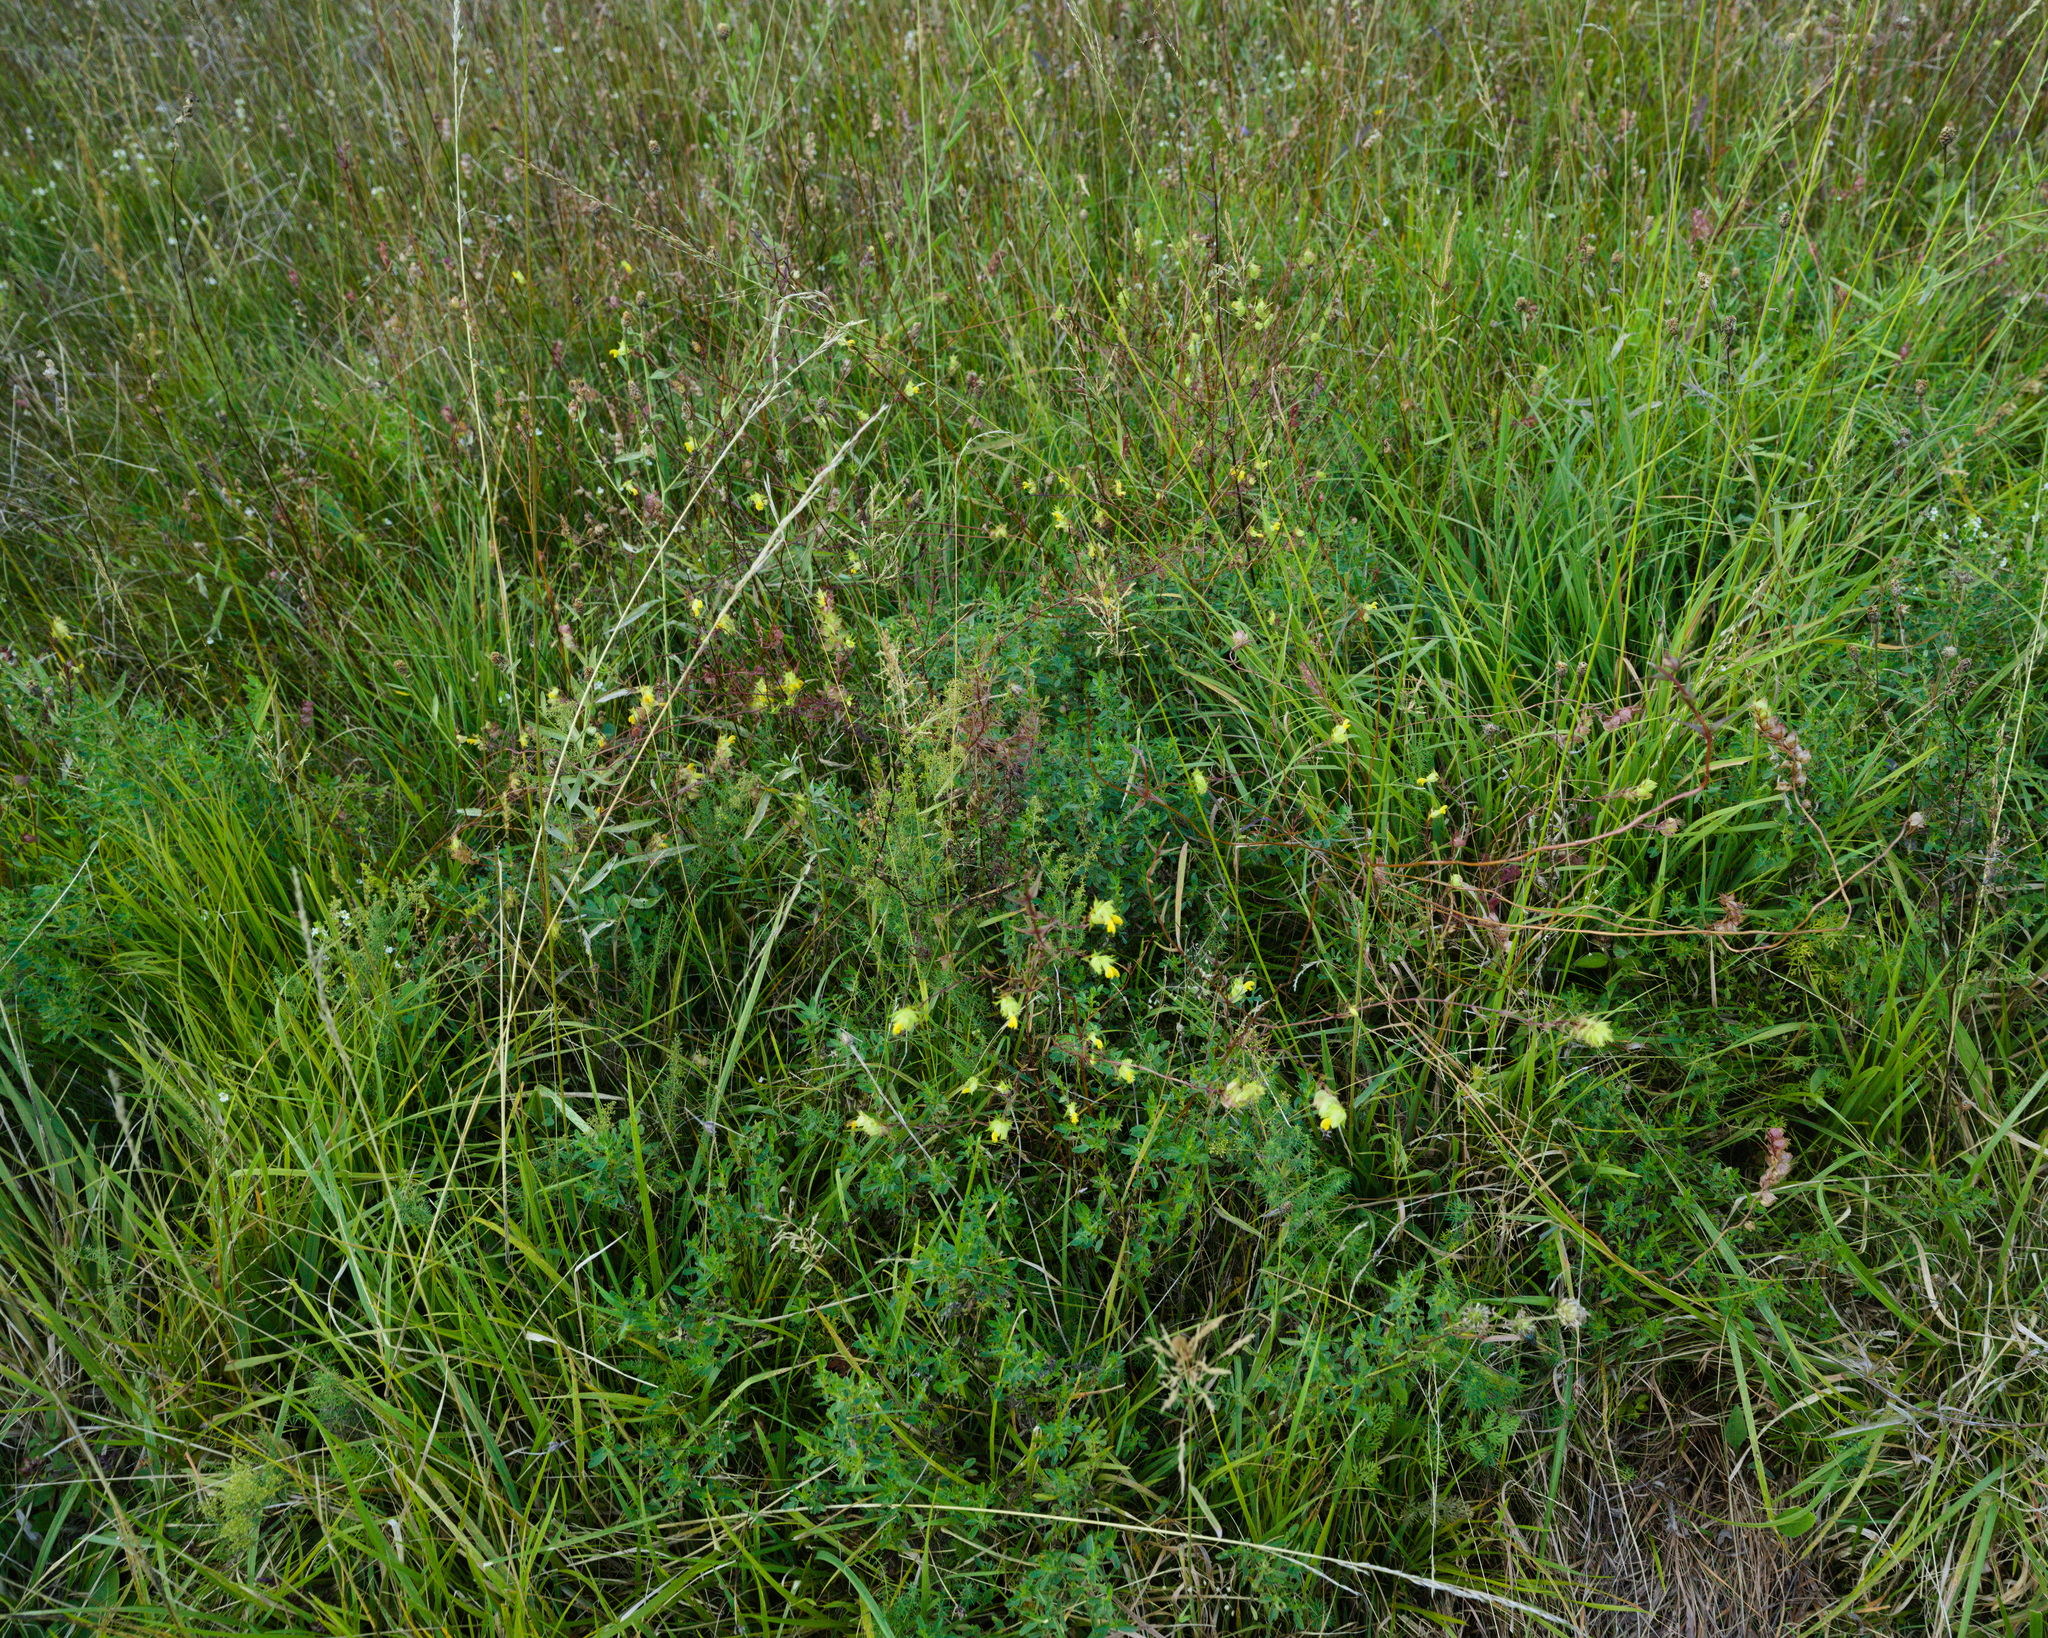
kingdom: Plantae
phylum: Tracheophyta
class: Magnoliopsida
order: Lamiales
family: Orobanchaceae
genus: Rhinanthus
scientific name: Rhinanthus glacialis
